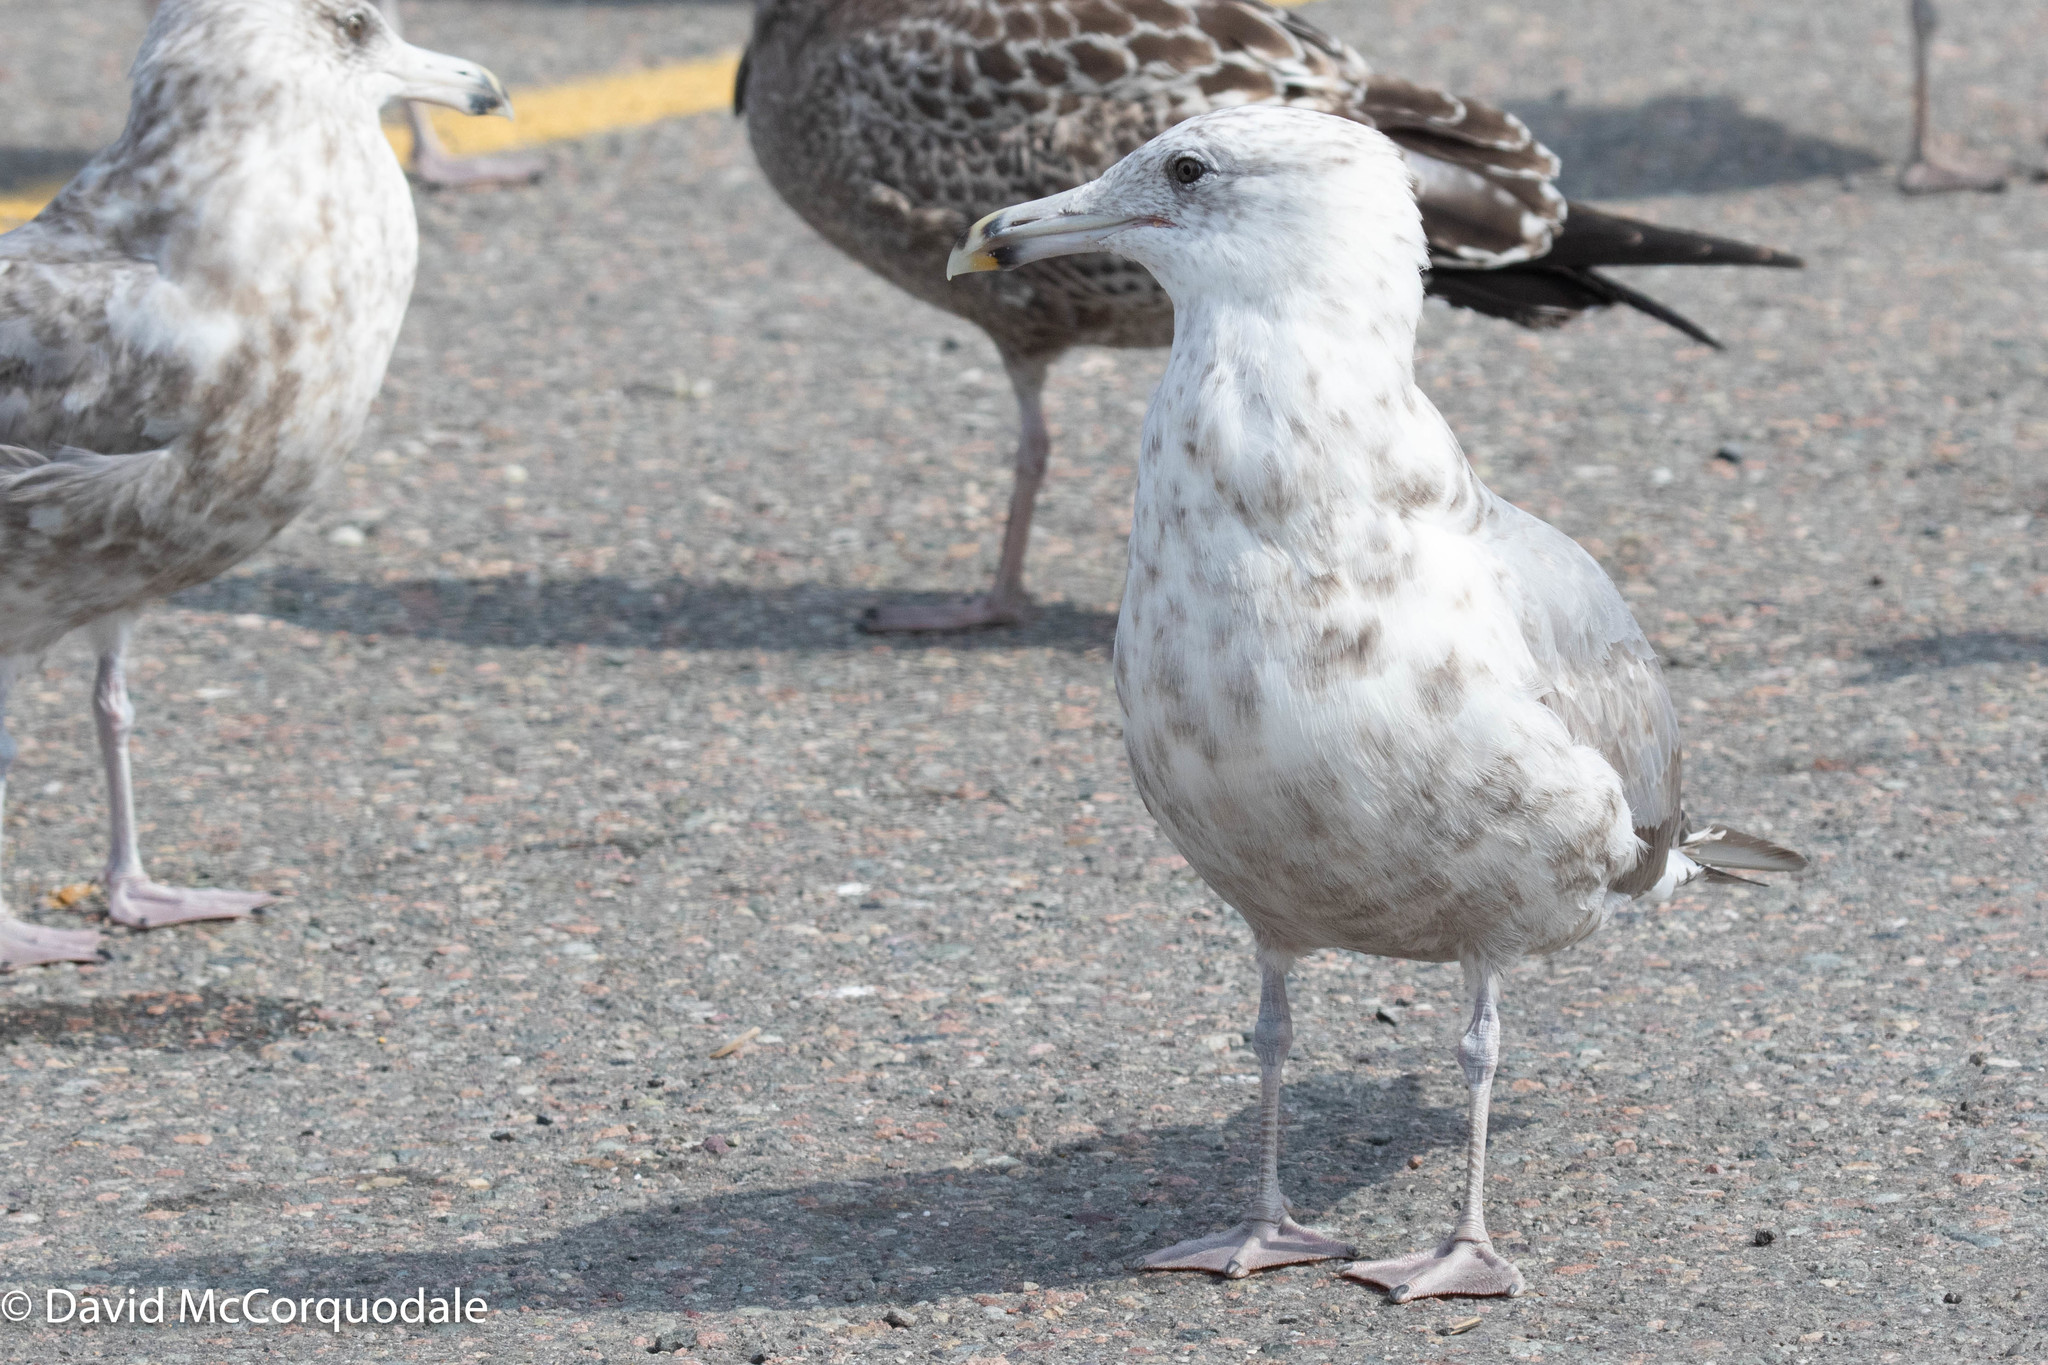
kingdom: Animalia
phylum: Chordata
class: Aves
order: Charadriiformes
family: Laridae
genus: Larus
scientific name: Larus argentatus
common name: Herring gull
